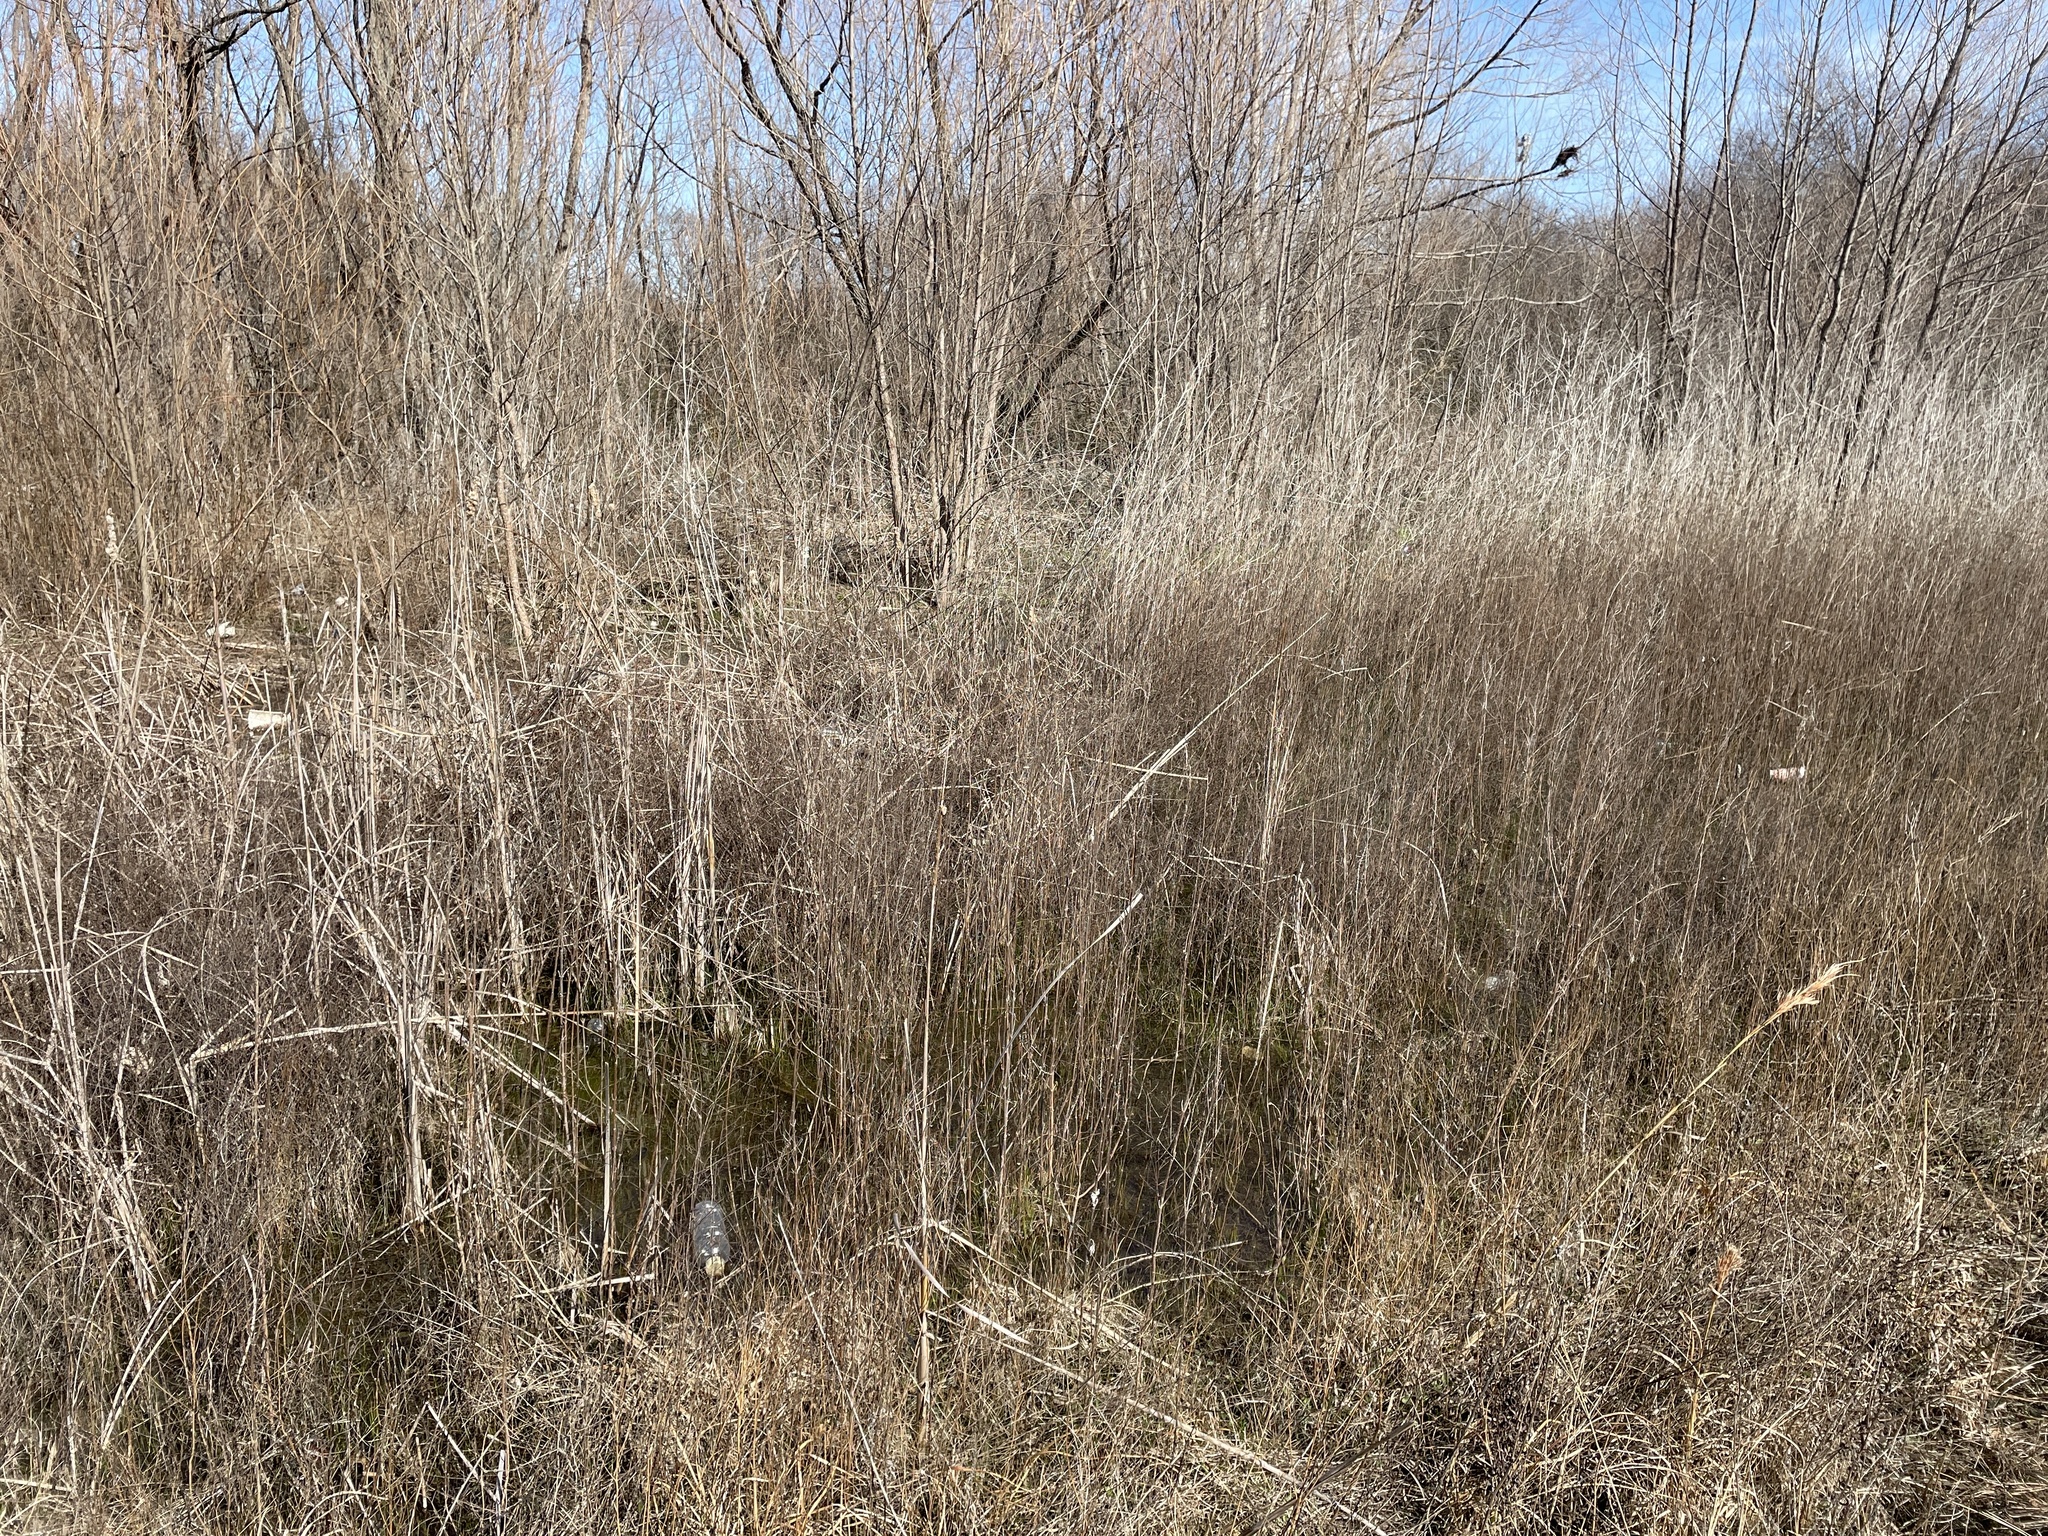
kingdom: Animalia
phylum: Chordata
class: Amphibia
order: Anura
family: Hylidae
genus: Pseudacris
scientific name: Pseudacris clarkii
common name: Spotted chorus frog
